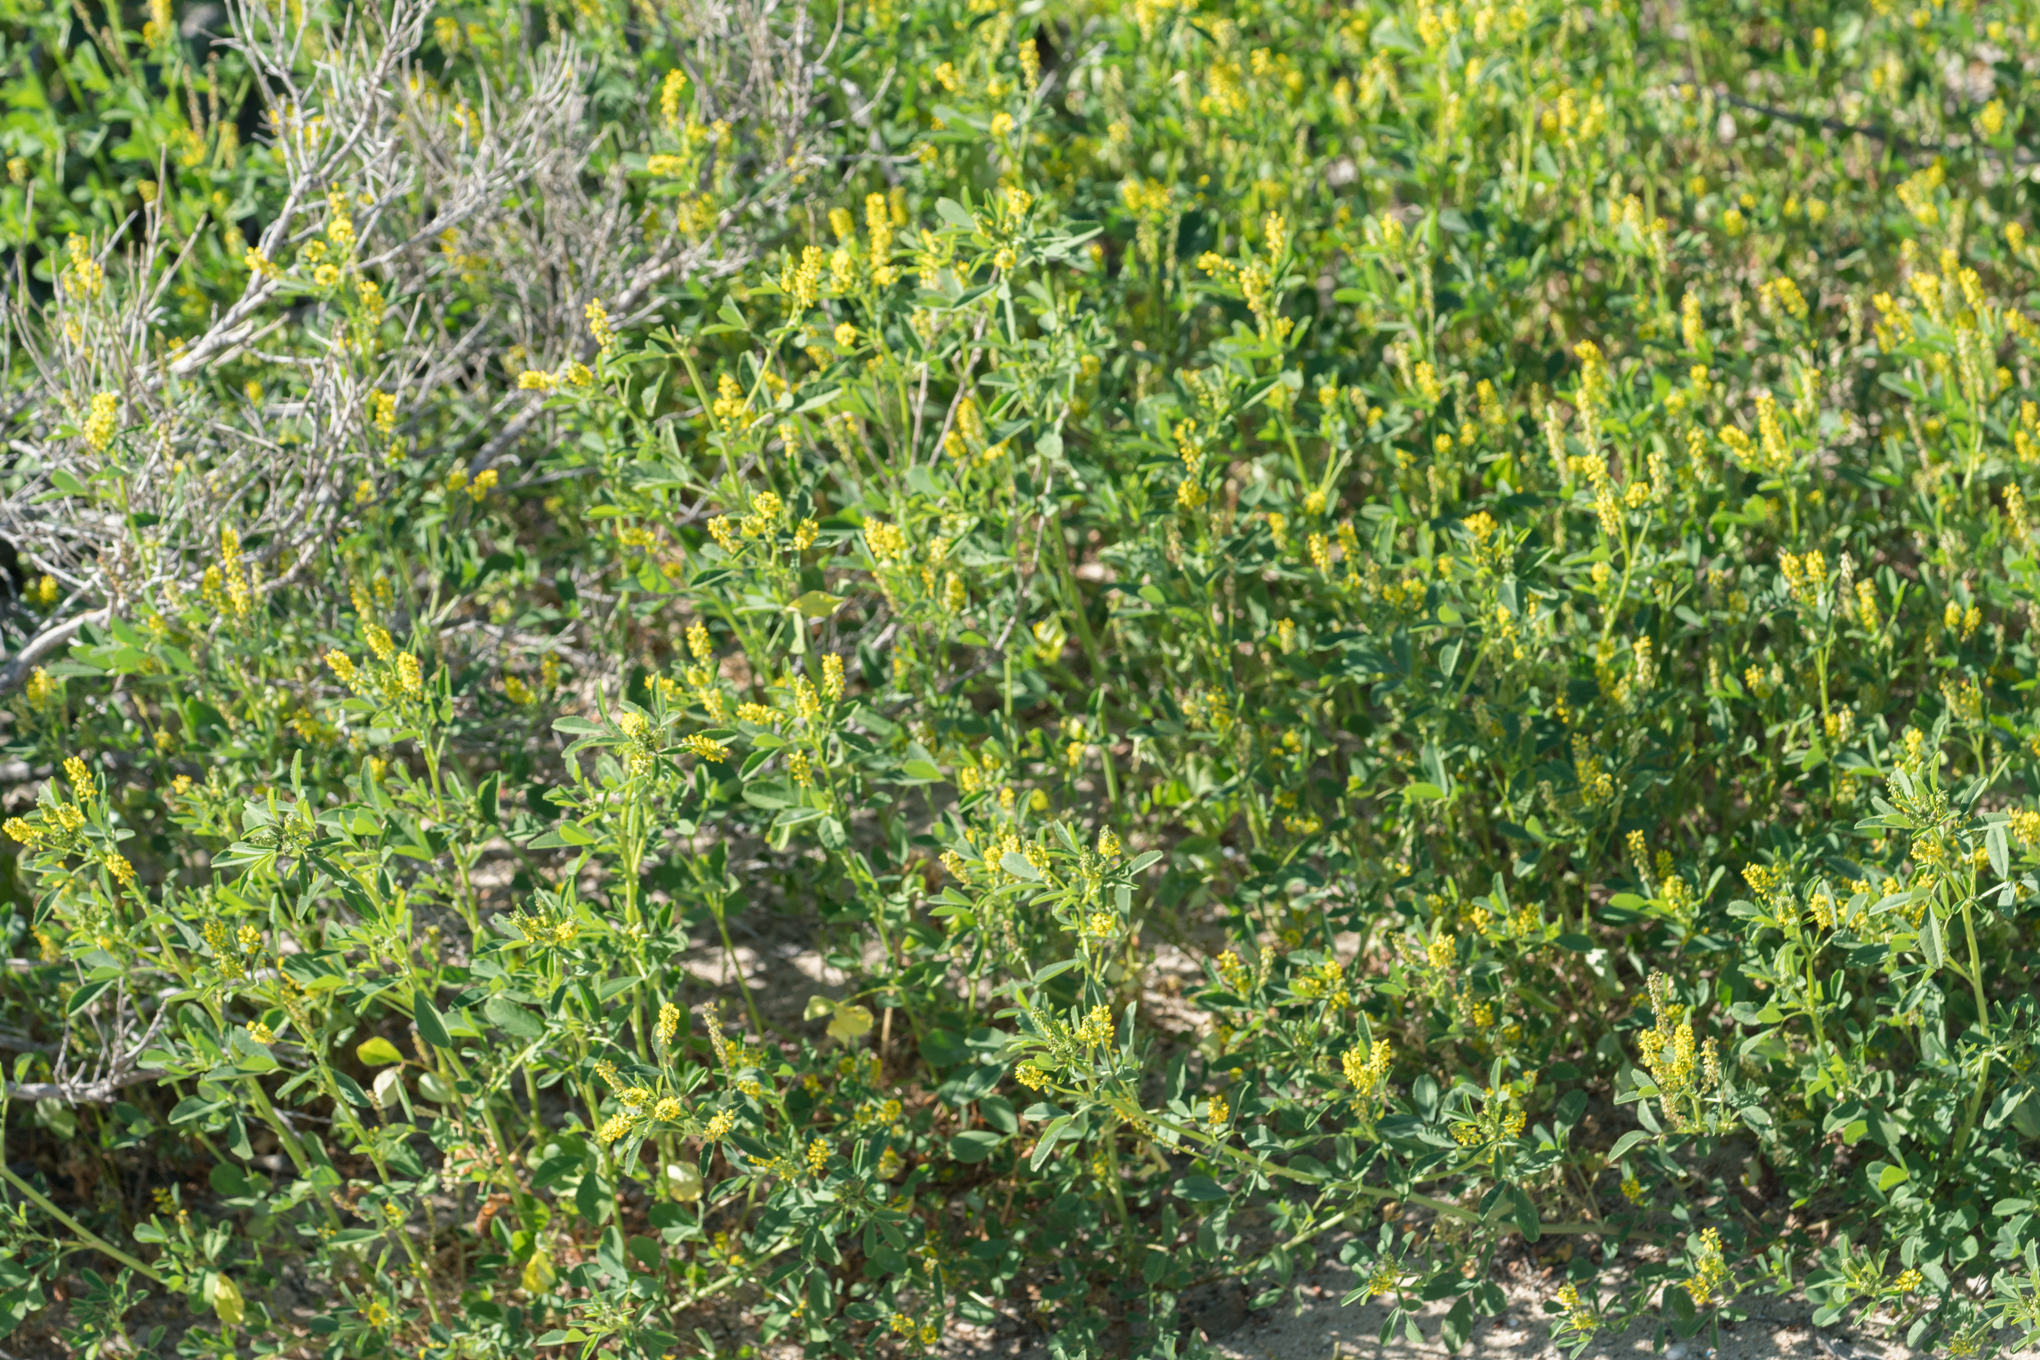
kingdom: Plantae
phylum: Tracheophyta
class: Magnoliopsida
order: Fabales
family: Fabaceae
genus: Melilotus
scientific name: Melilotus indicus
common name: Small melilot
